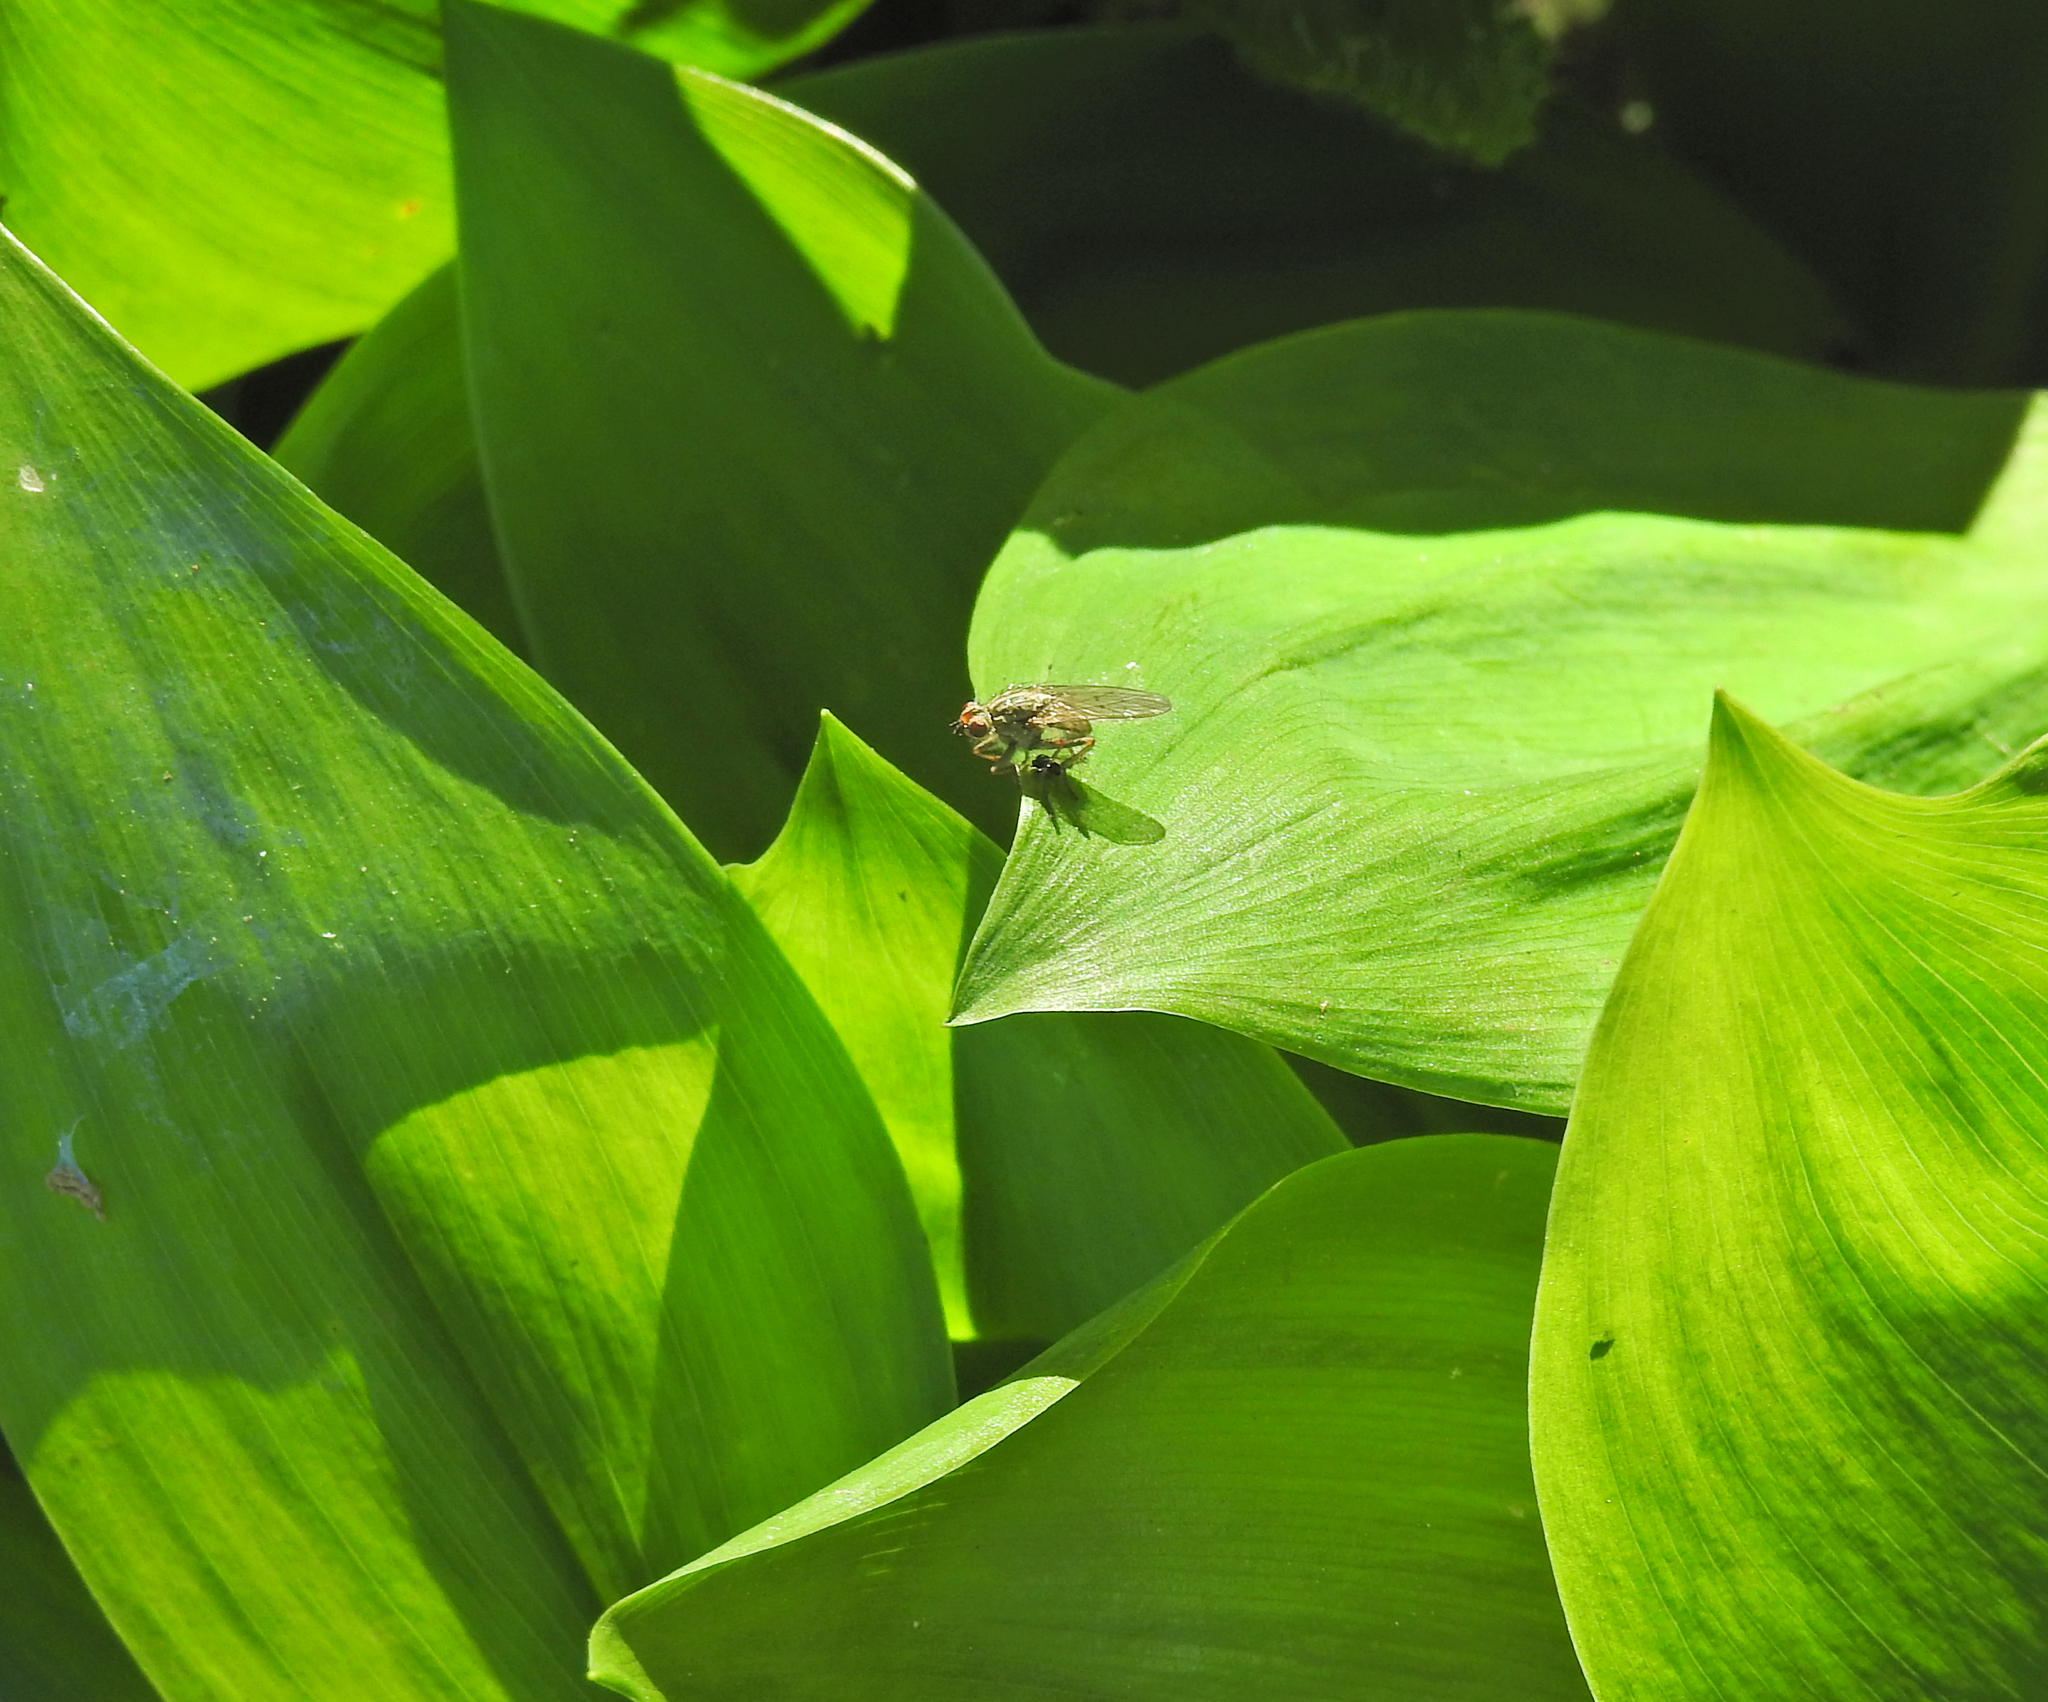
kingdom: Animalia
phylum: Arthropoda
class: Insecta
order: Diptera
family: Scathophagidae
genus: Scathophaga
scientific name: Scathophaga stercoraria
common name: Yellow dung fly
